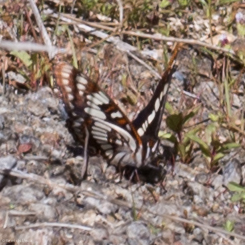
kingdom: Animalia
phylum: Arthropoda
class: Insecta
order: Lepidoptera
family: Nymphalidae
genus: Limenitis
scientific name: Limenitis lorquini
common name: Lorquin's admiral
